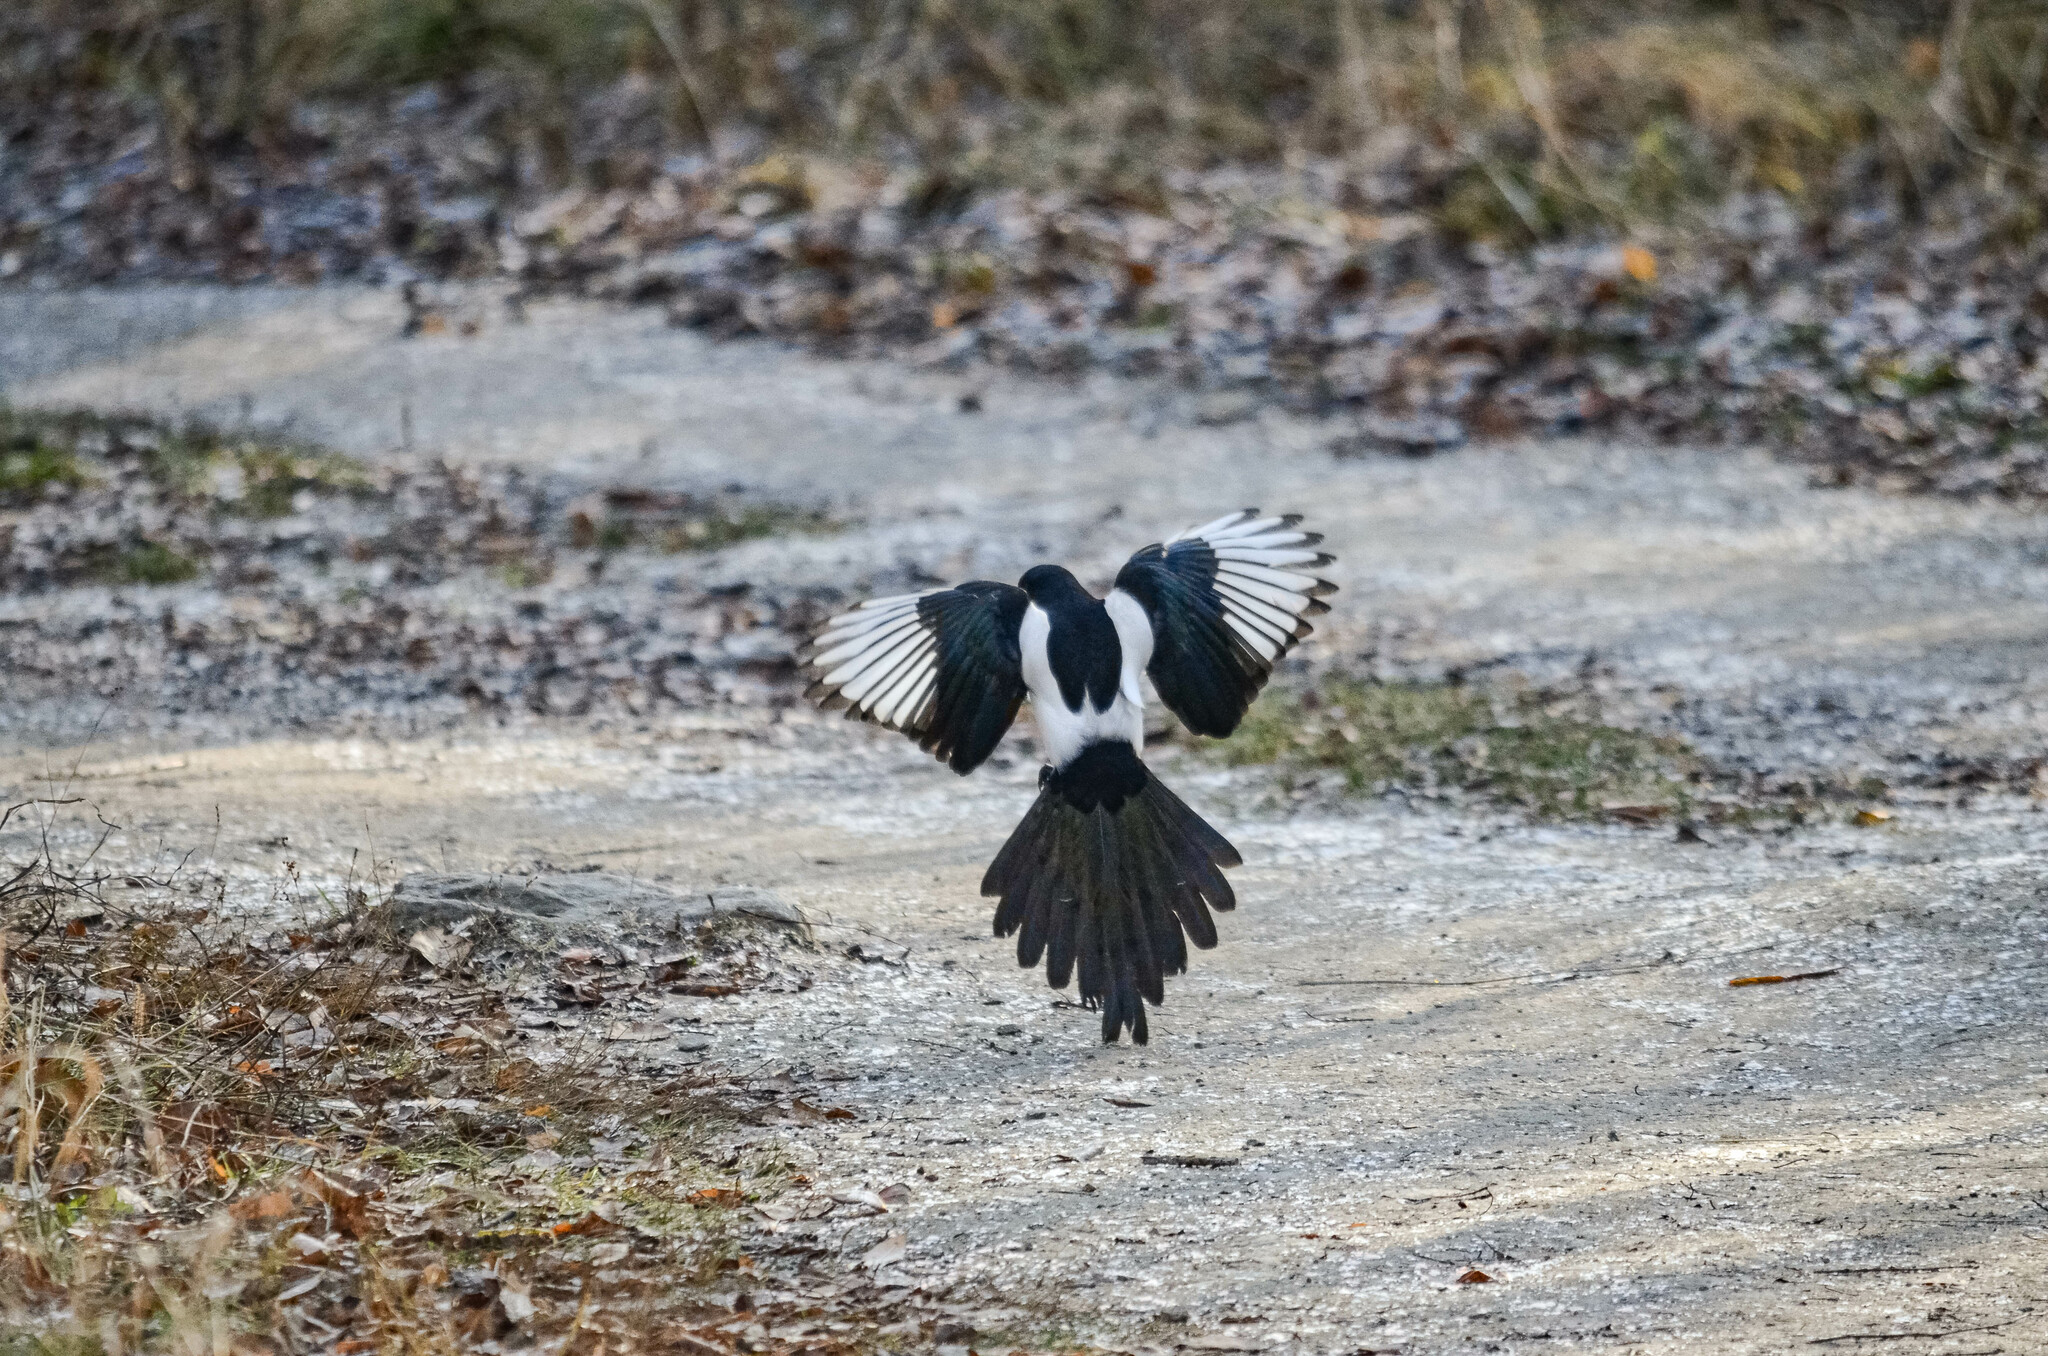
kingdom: Animalia
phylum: Chordata
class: Aves
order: Passeriformes
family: Corvidae
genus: Pica
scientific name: Pica pica
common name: Eurasian magpie
